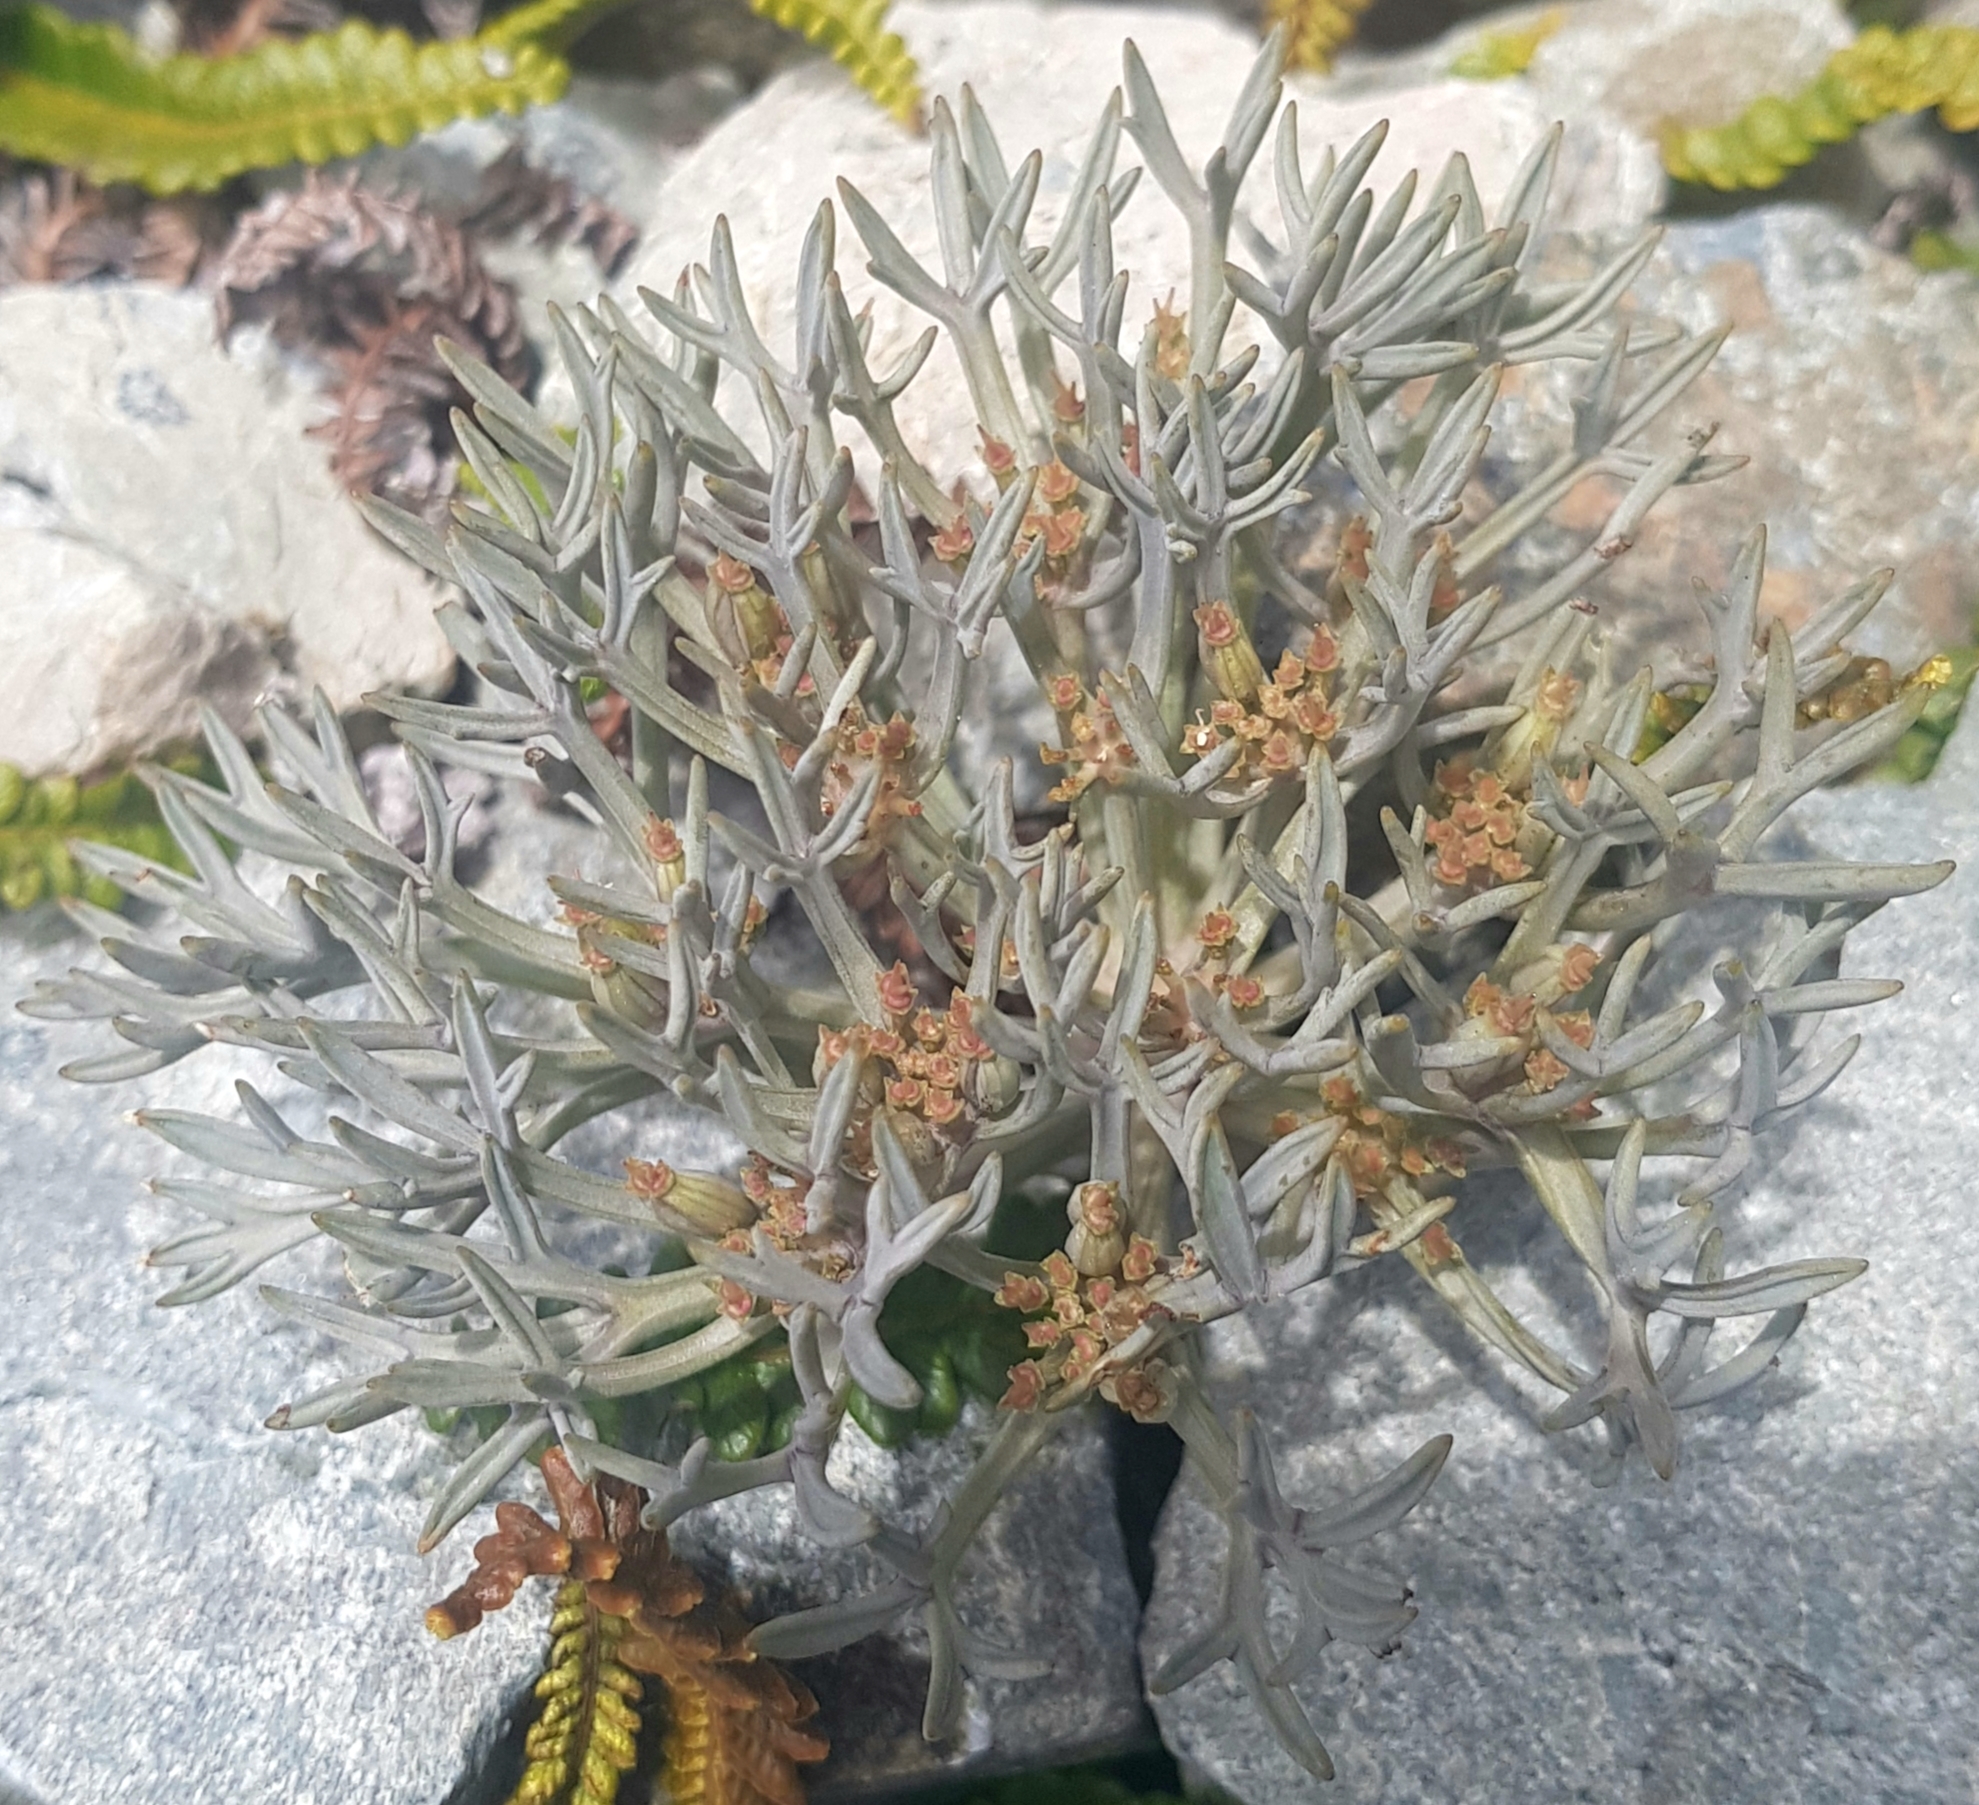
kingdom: Plantae
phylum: Tracheophyta
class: Magnoliopsida
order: Apiales
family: Apiaceae
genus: Lignocarpa
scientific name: Lignocarpa carnosula
